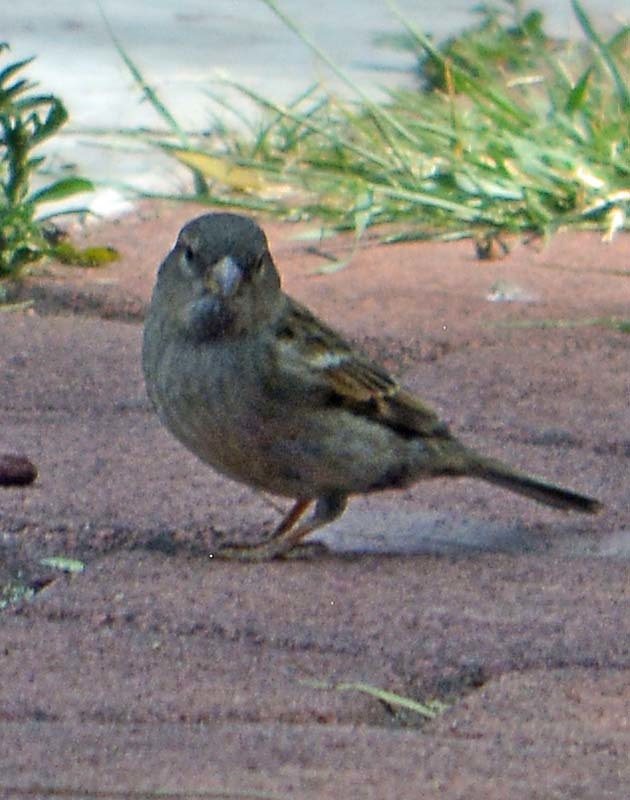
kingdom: Animalia
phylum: Chordata
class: Aves
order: Passeriformes
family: Passeridae
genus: Passer
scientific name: Passer domesticus
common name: House sparrow
